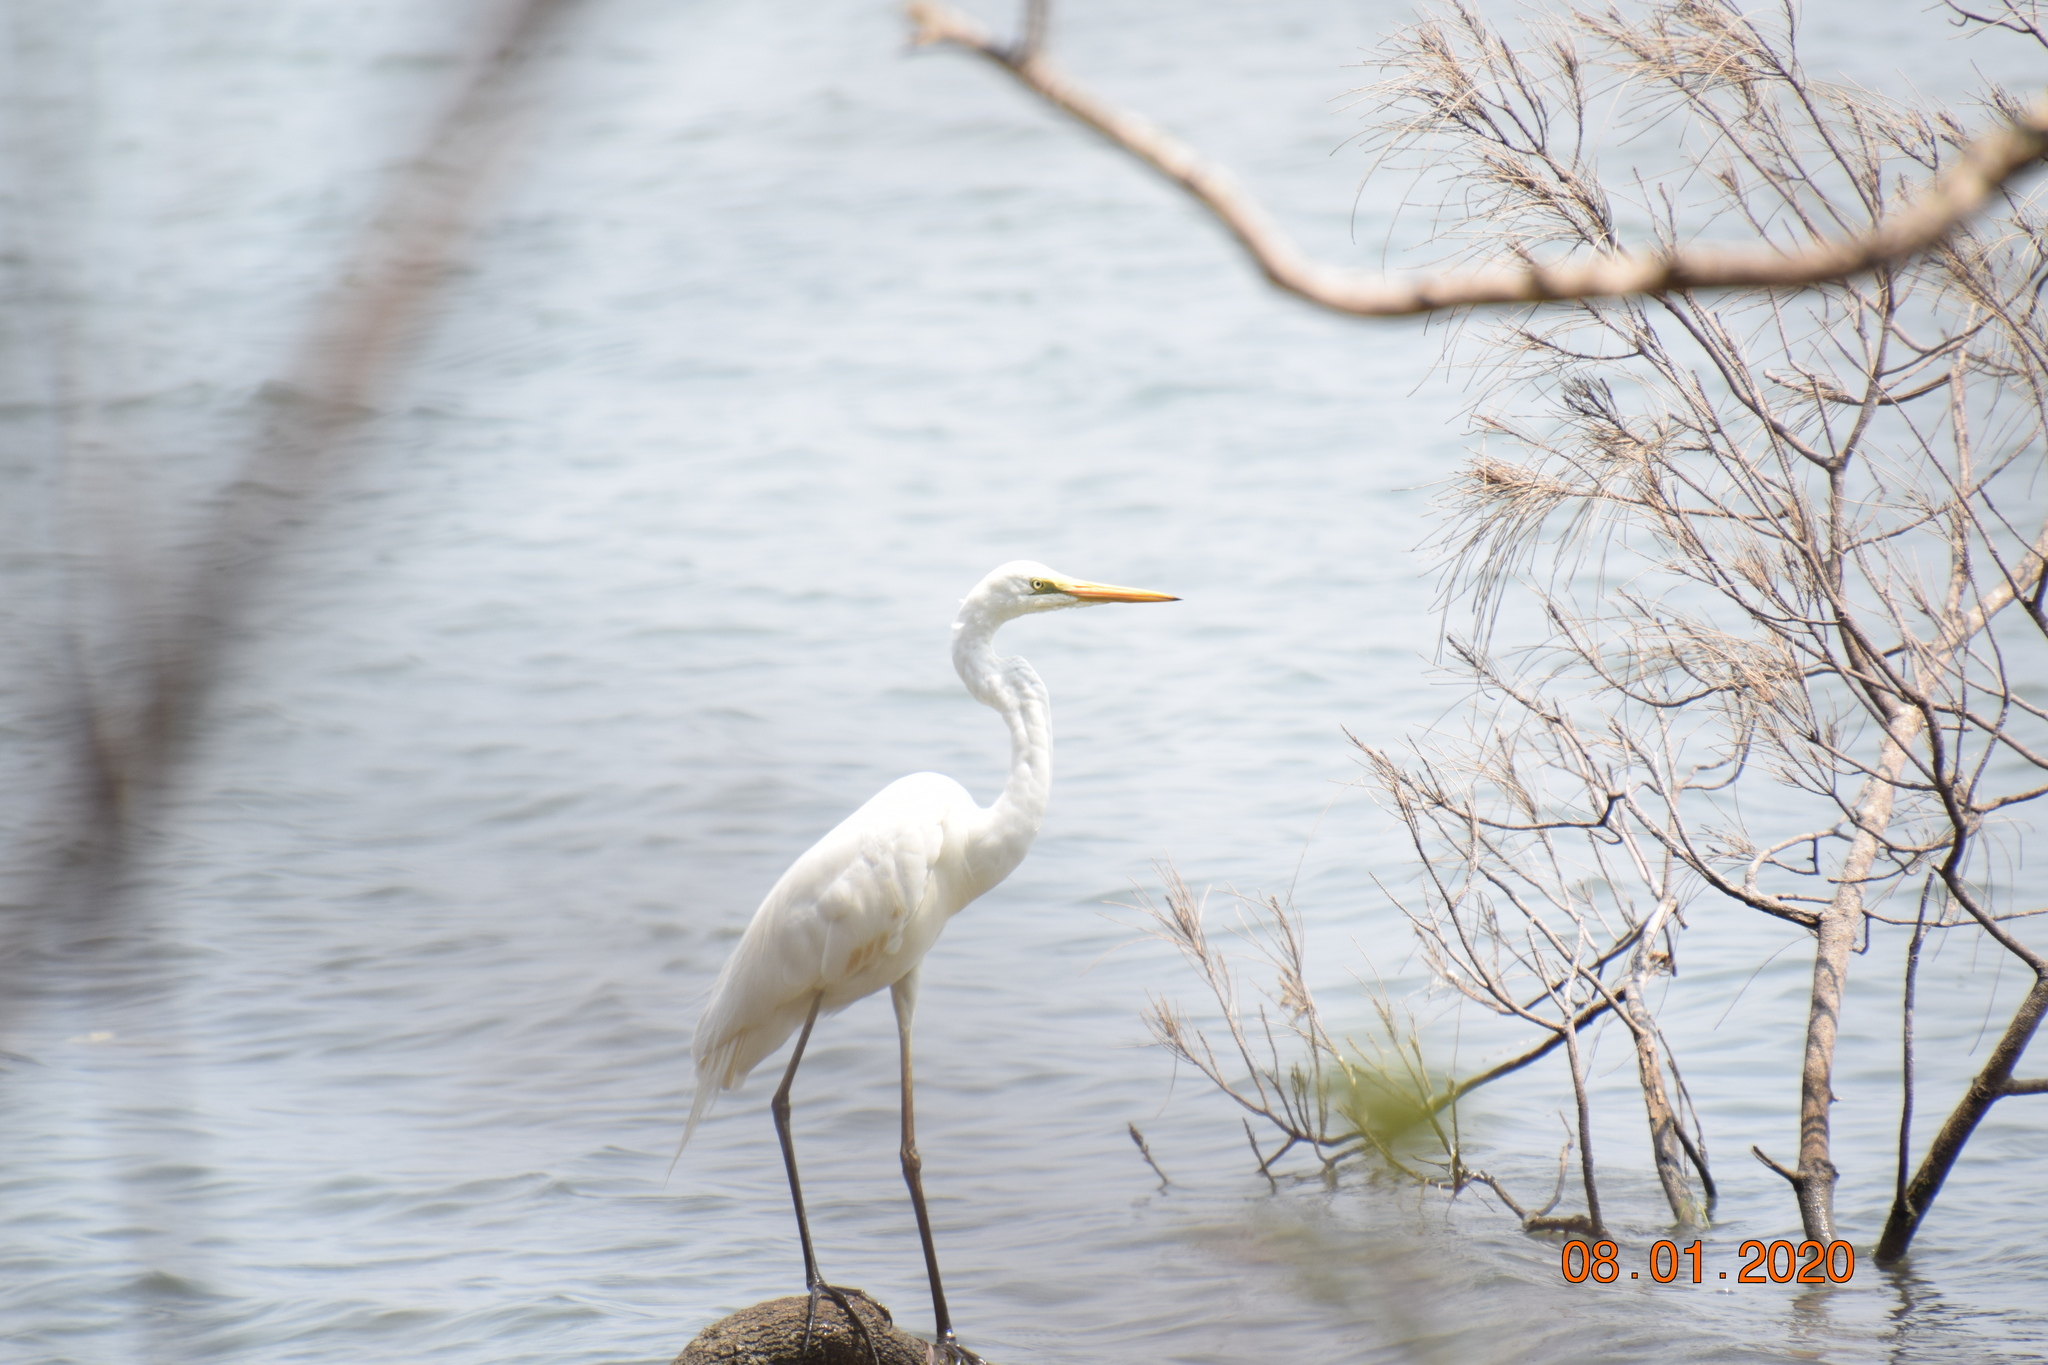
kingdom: Animalia
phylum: Chordata
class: Aves
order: Pelecaniformes
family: Ardeidae
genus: Ardea
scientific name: Ardea modesta
